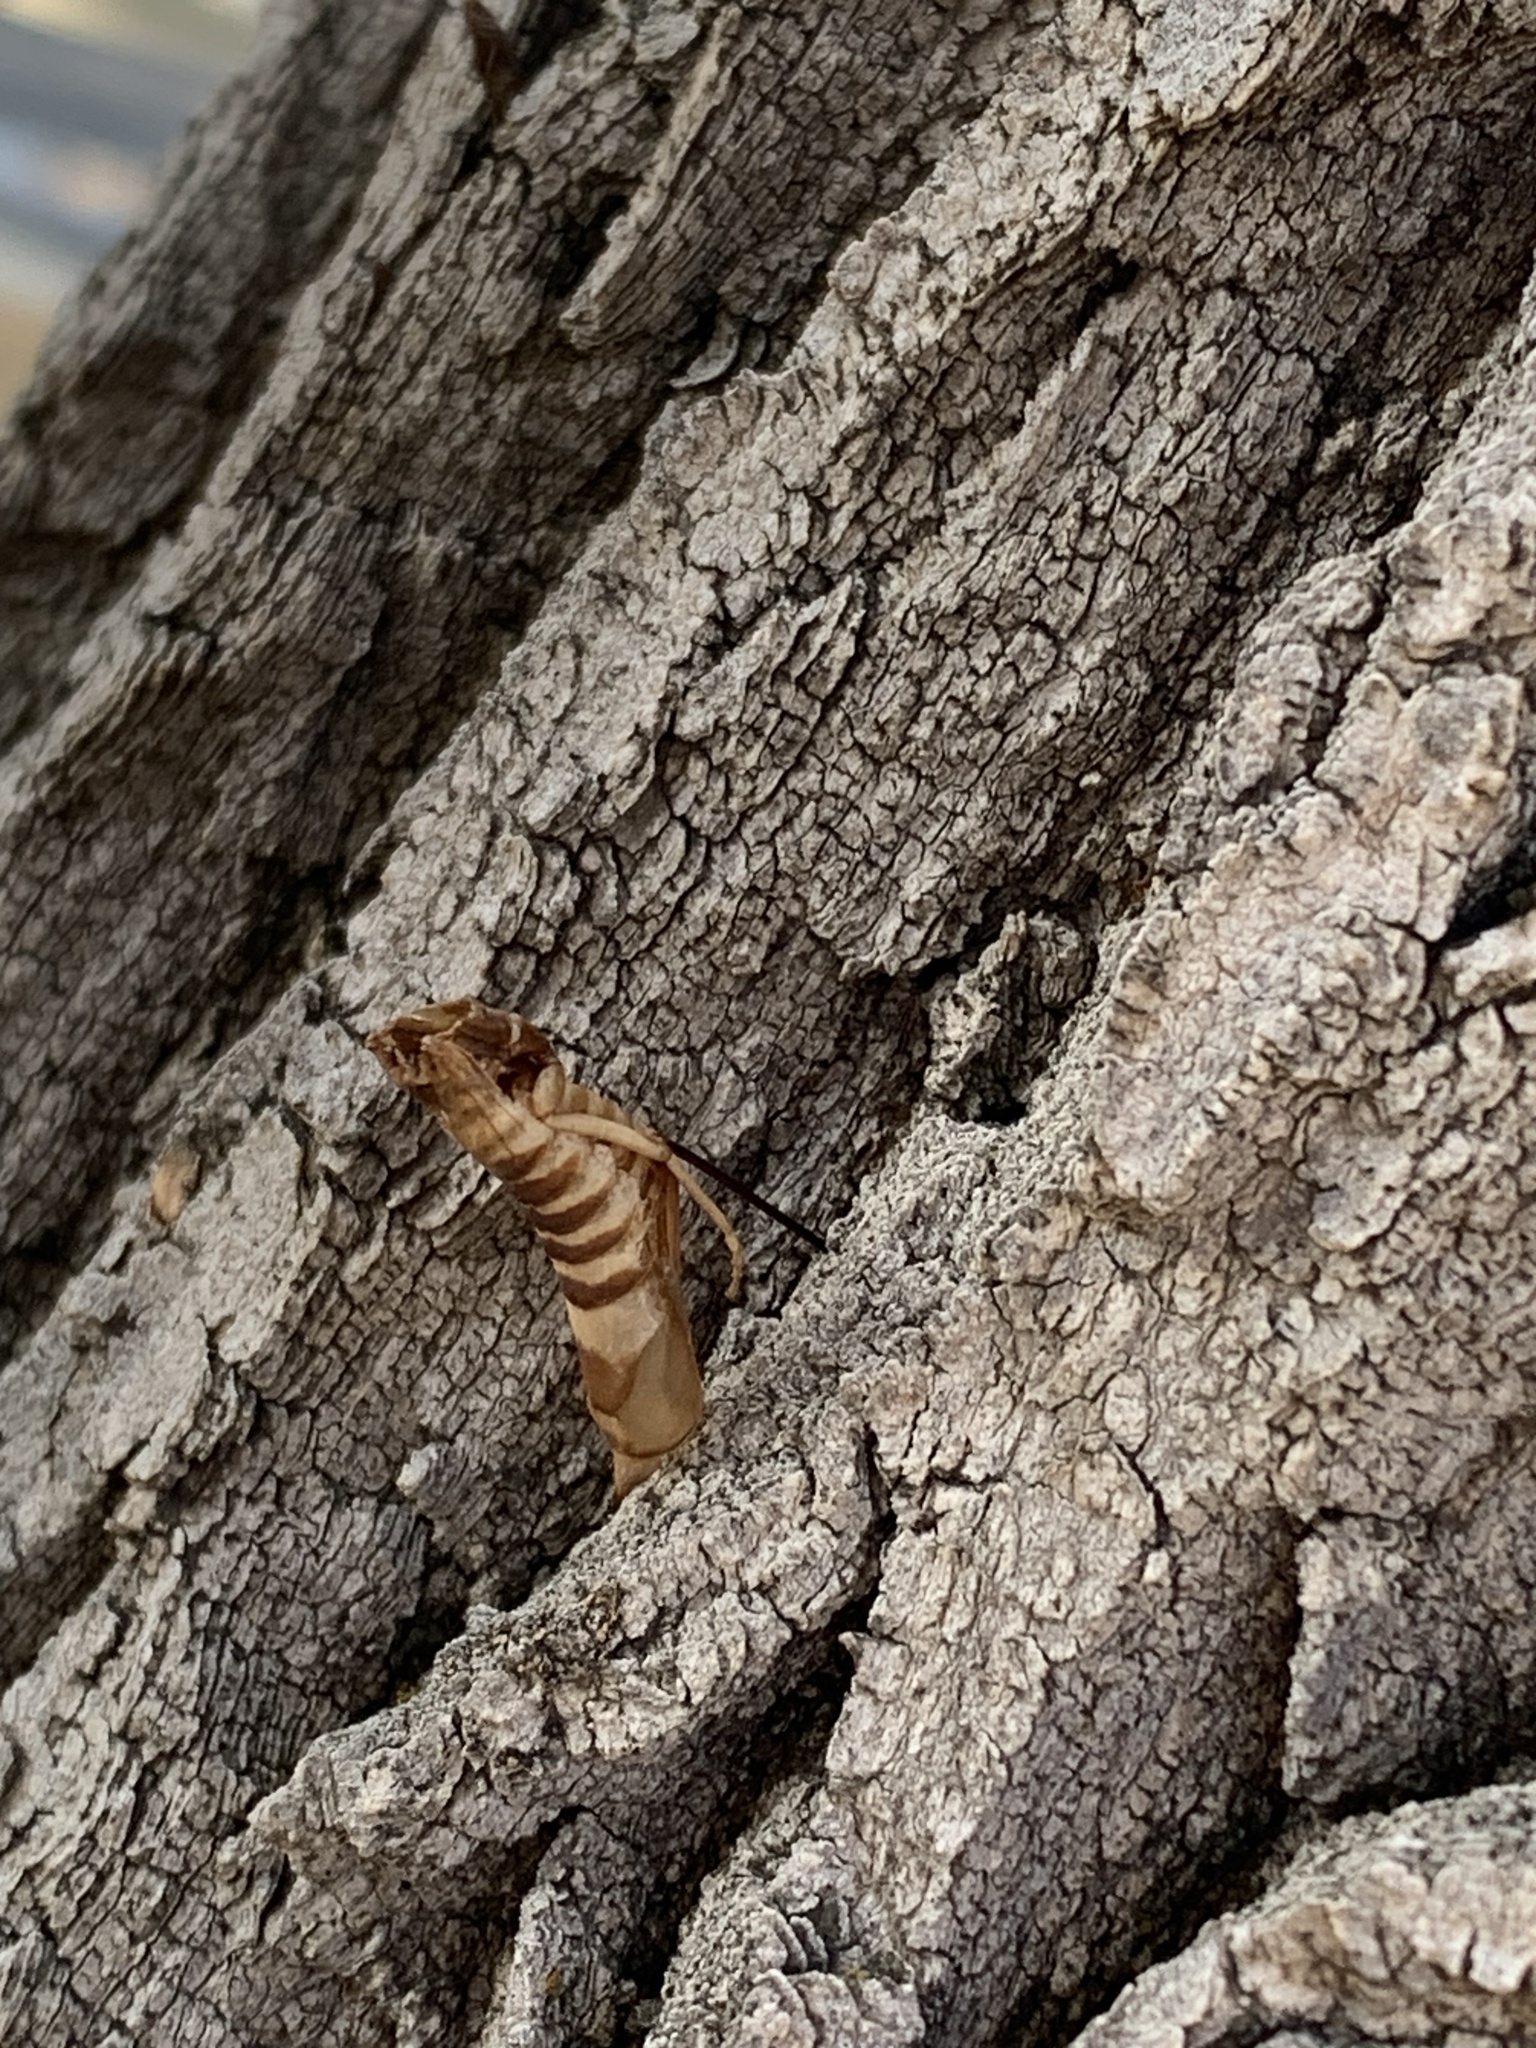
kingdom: Animalia
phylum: Arthropoda
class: Insecta
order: Hymenoptera
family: Siricidae
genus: Tremex
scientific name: Tremex columba
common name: Wasp
